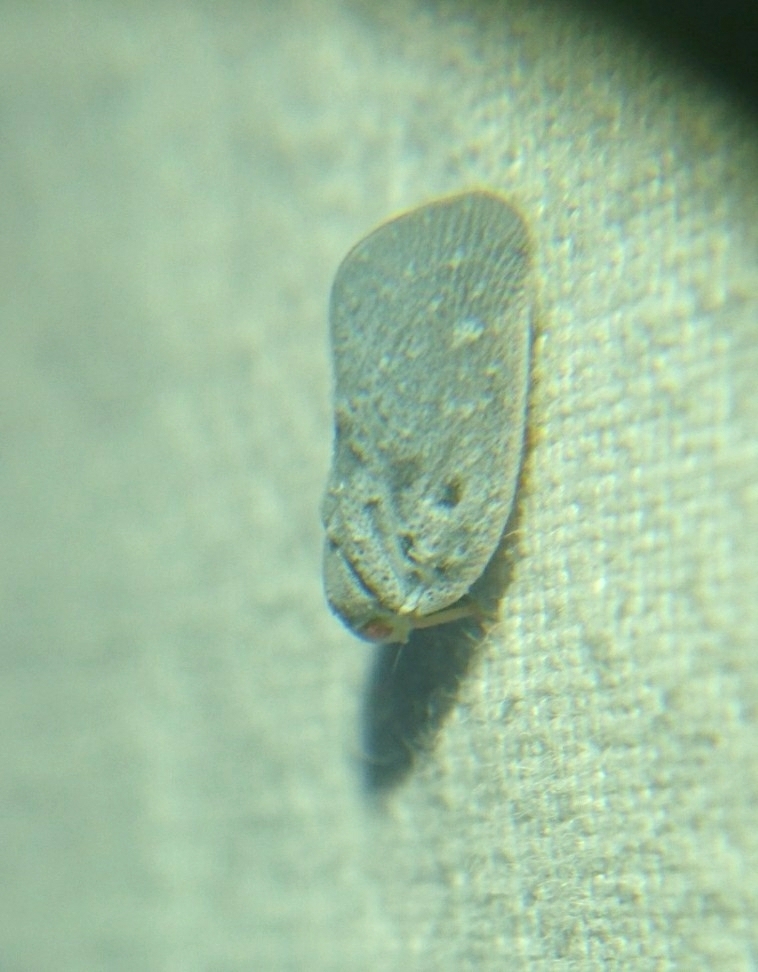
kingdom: Animalia
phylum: Arthropoda
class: Insecta
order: Hemiptera
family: Flatidae
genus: Metcalfa
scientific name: Metcalfa pruinosa
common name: Citrus flatid planthopper
